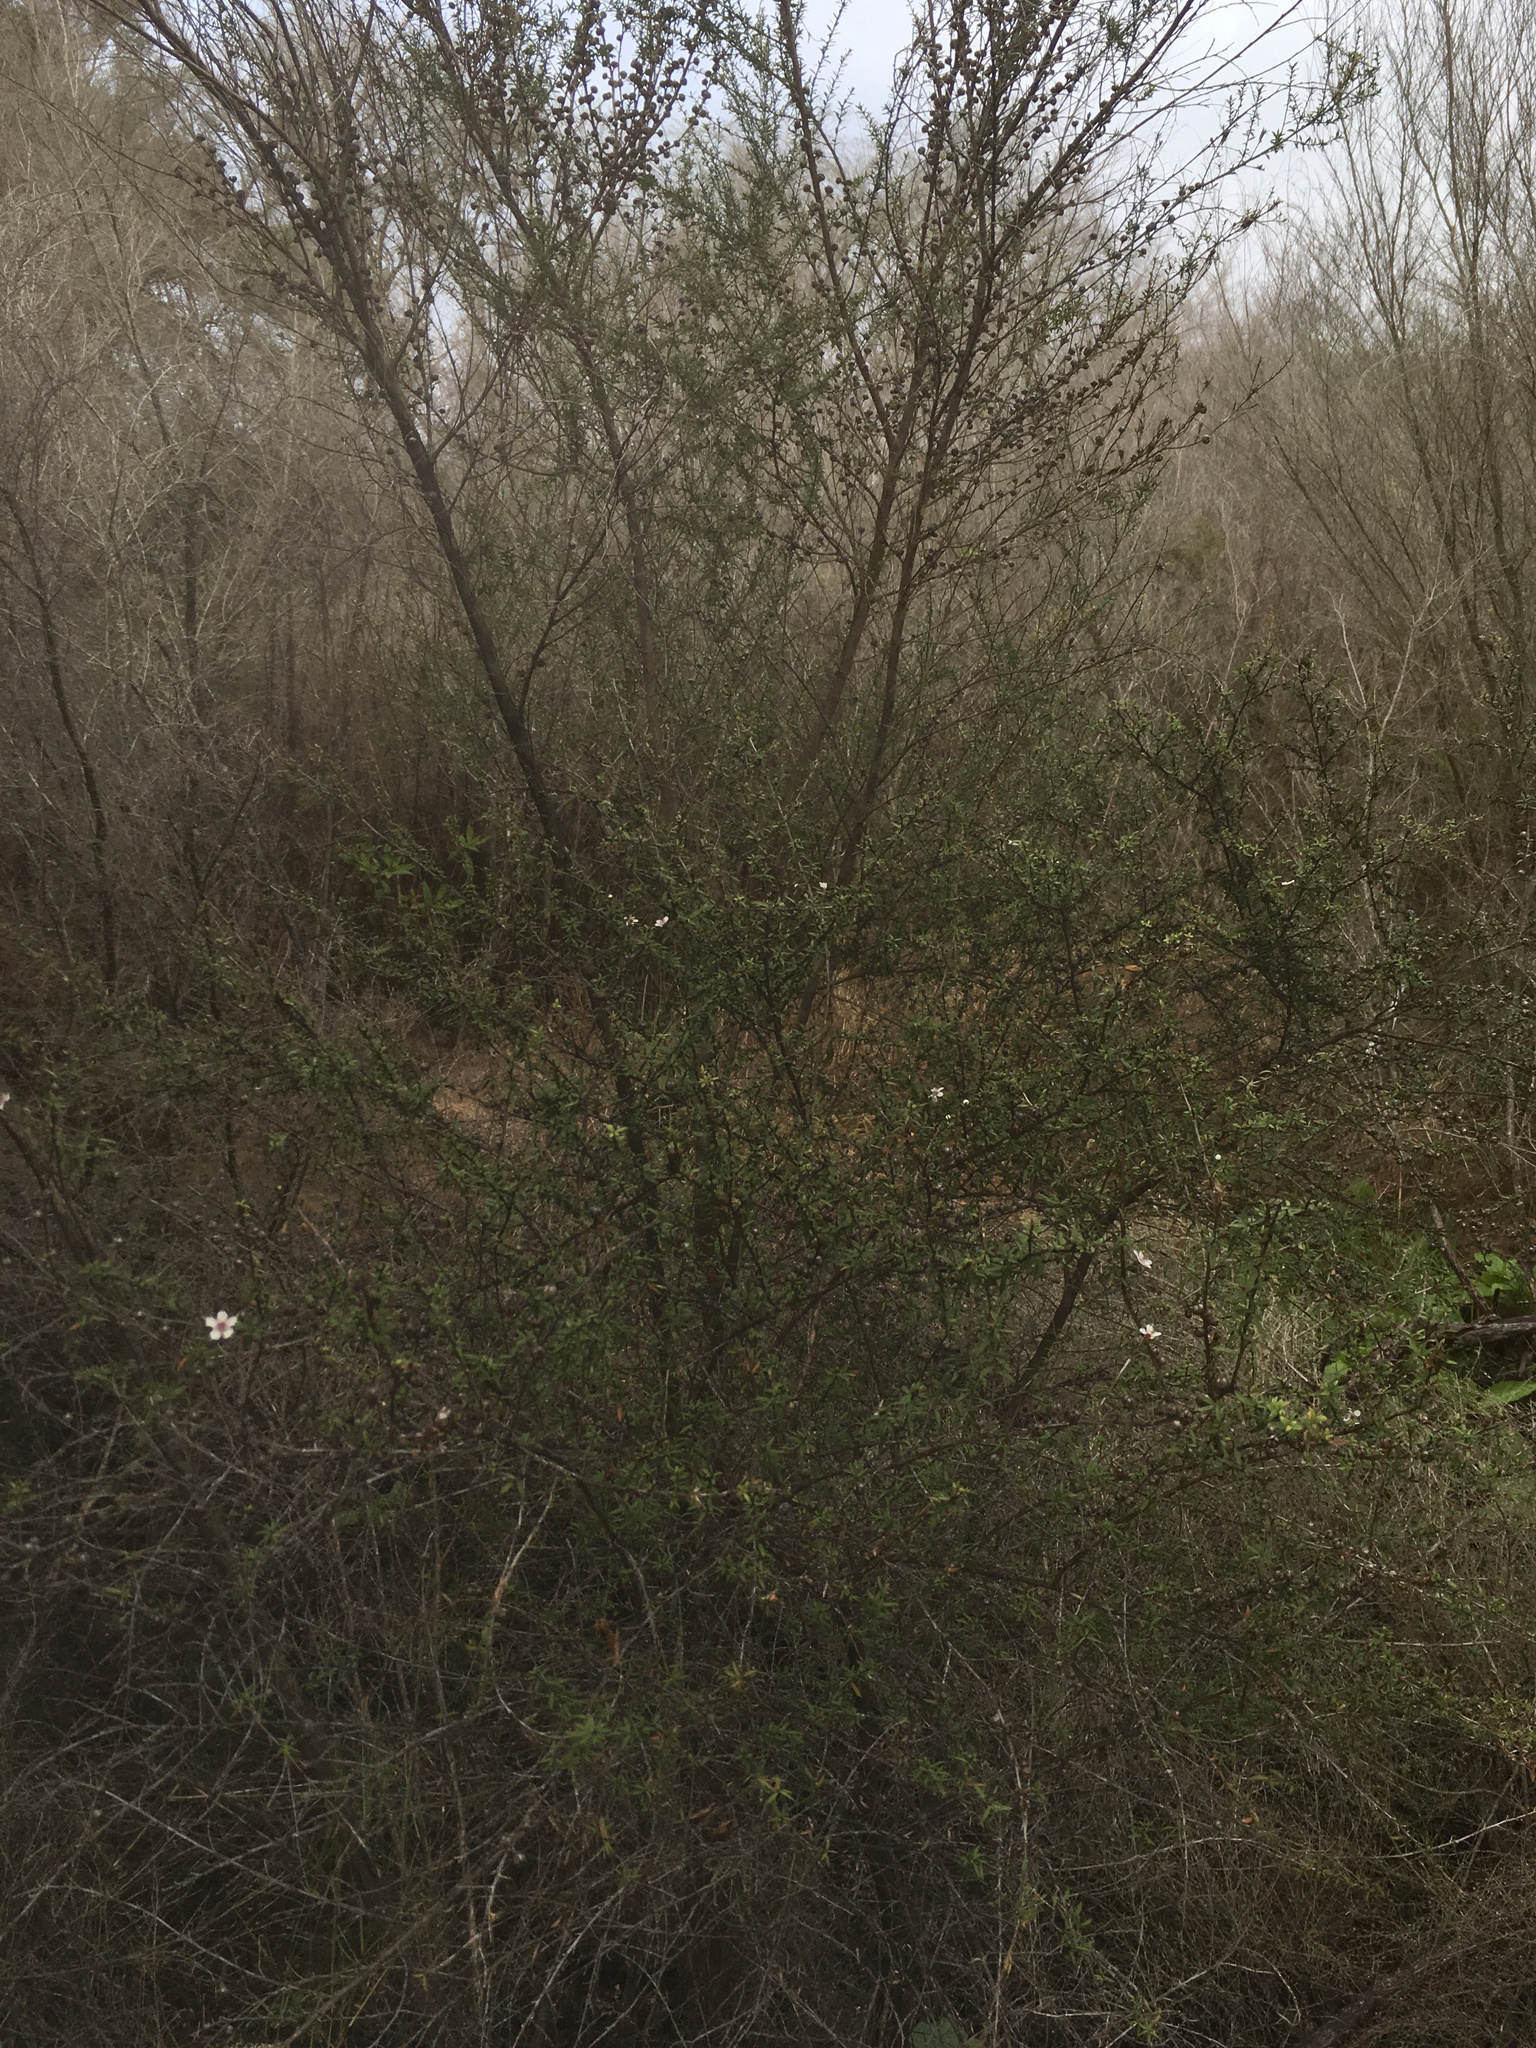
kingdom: Plantae
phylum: Tracheophyta
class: Magnoliopsida
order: Myrtales
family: Myrtaceae
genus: Leptospermum
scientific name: Leptospermum scoparium
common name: Broom tea-tree
